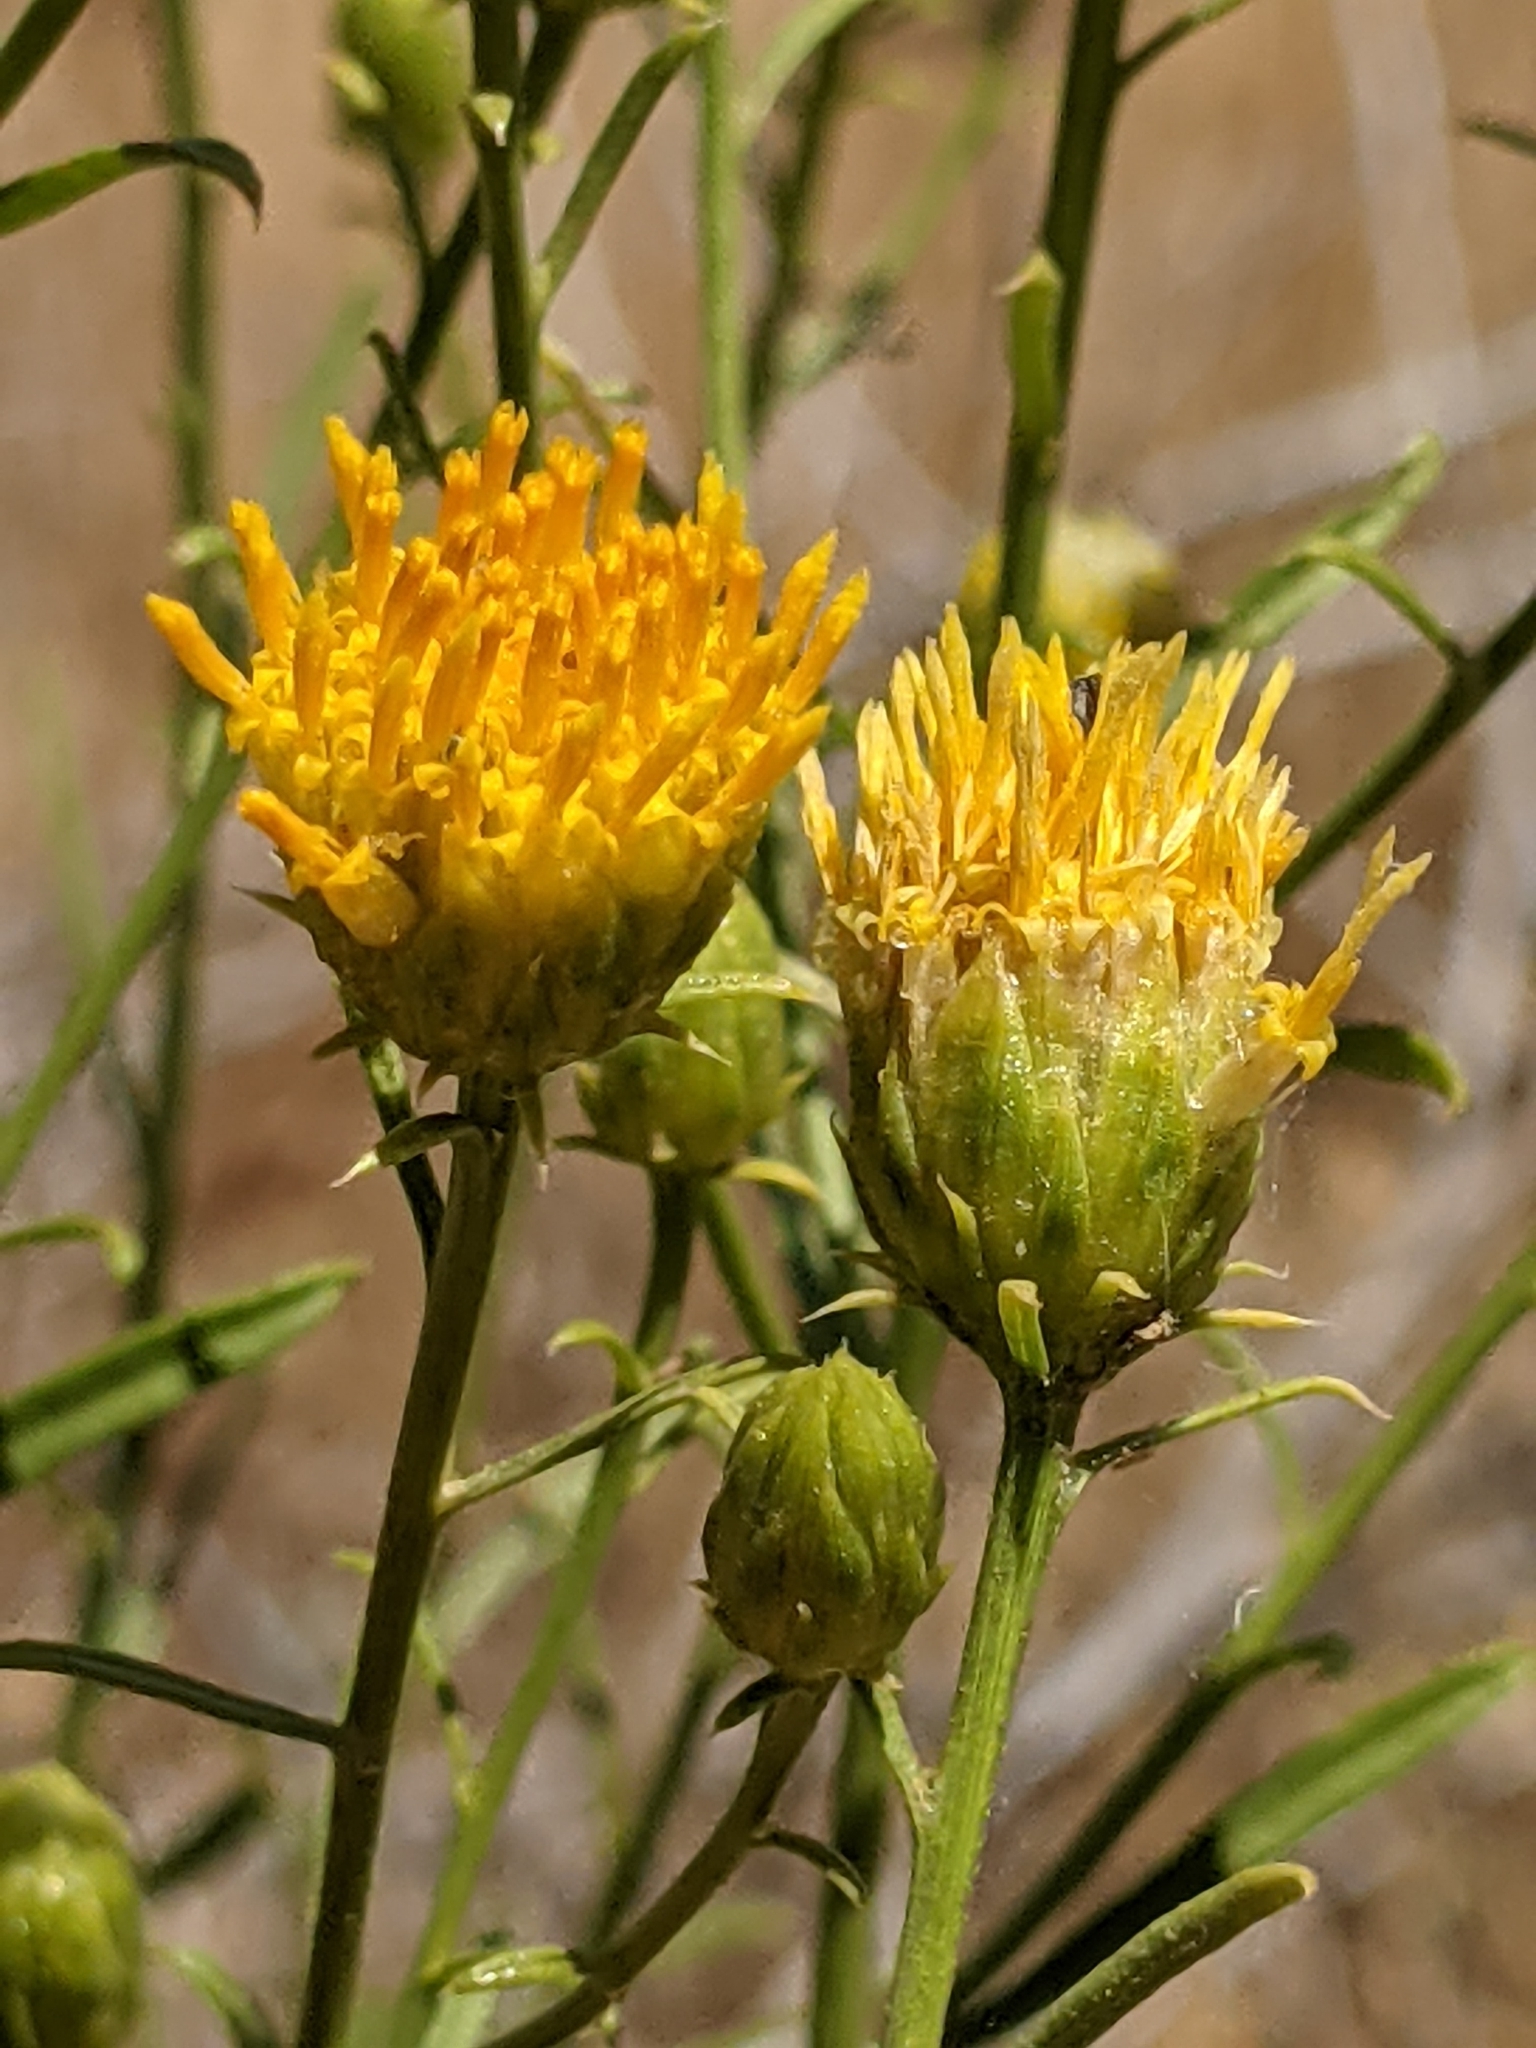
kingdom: Plantae
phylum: Tracheophyta
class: Magnoliopsida
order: Asterales
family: Asteraceae
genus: Eastwoodia
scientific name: Eastwoodia elegans
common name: Yellow-aster
